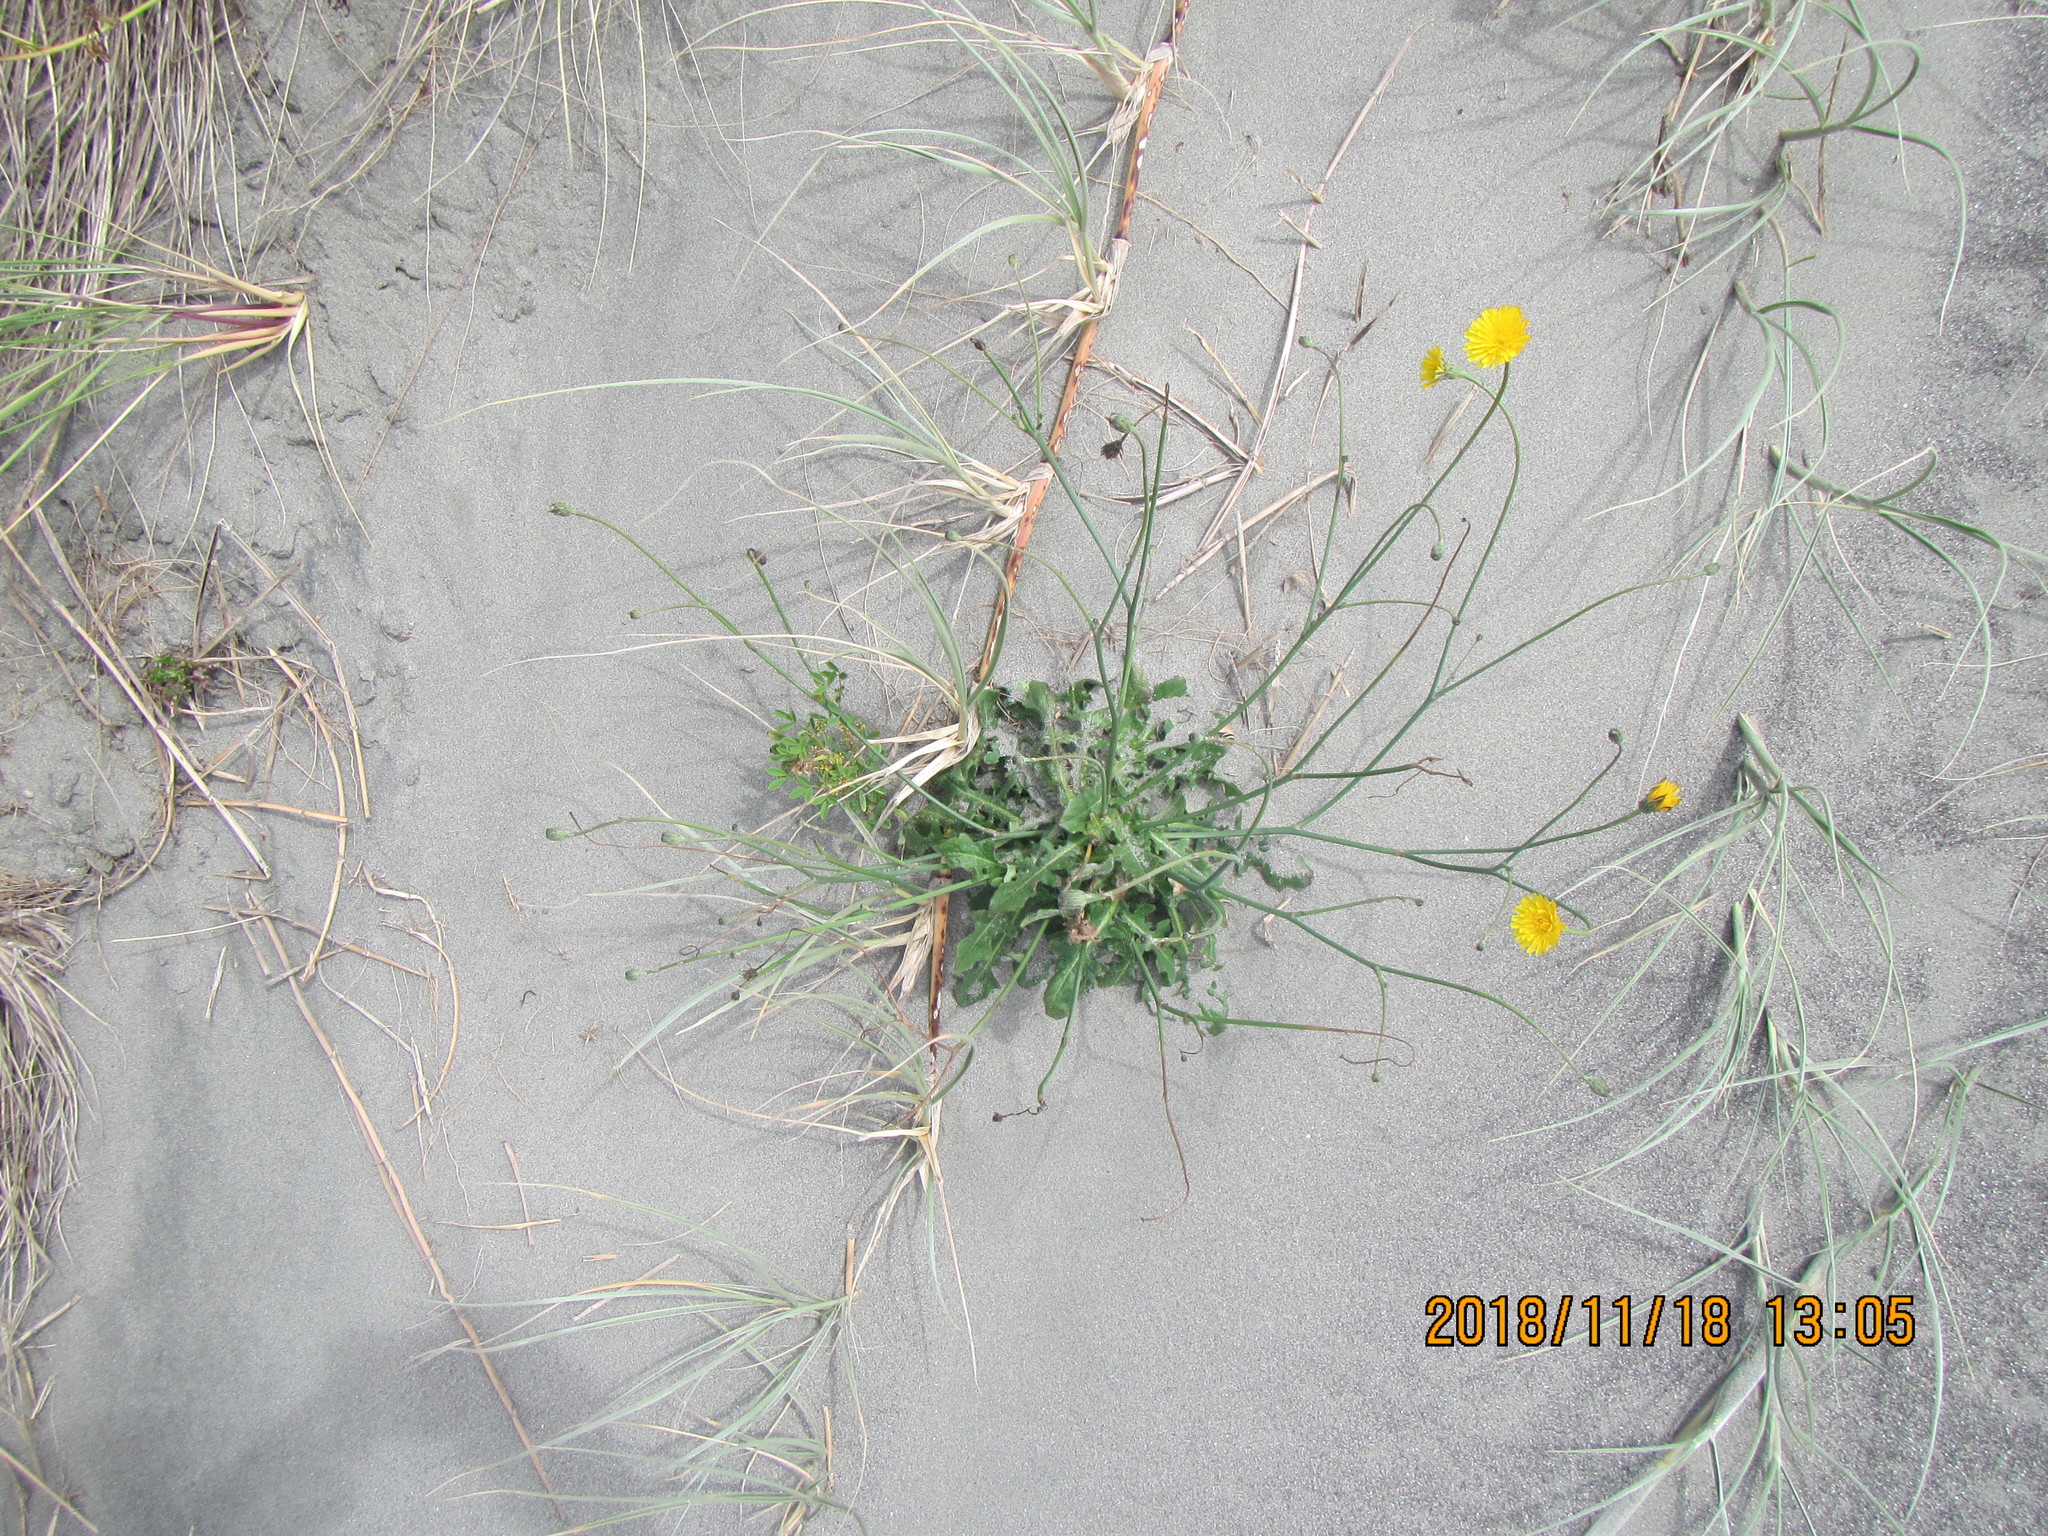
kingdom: Plantae
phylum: Tracheophyta
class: Magnoliopsida
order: Asterales
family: Asteraceae
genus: Hypochaeris
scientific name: Hypochaeris radicata
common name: Flatweed
